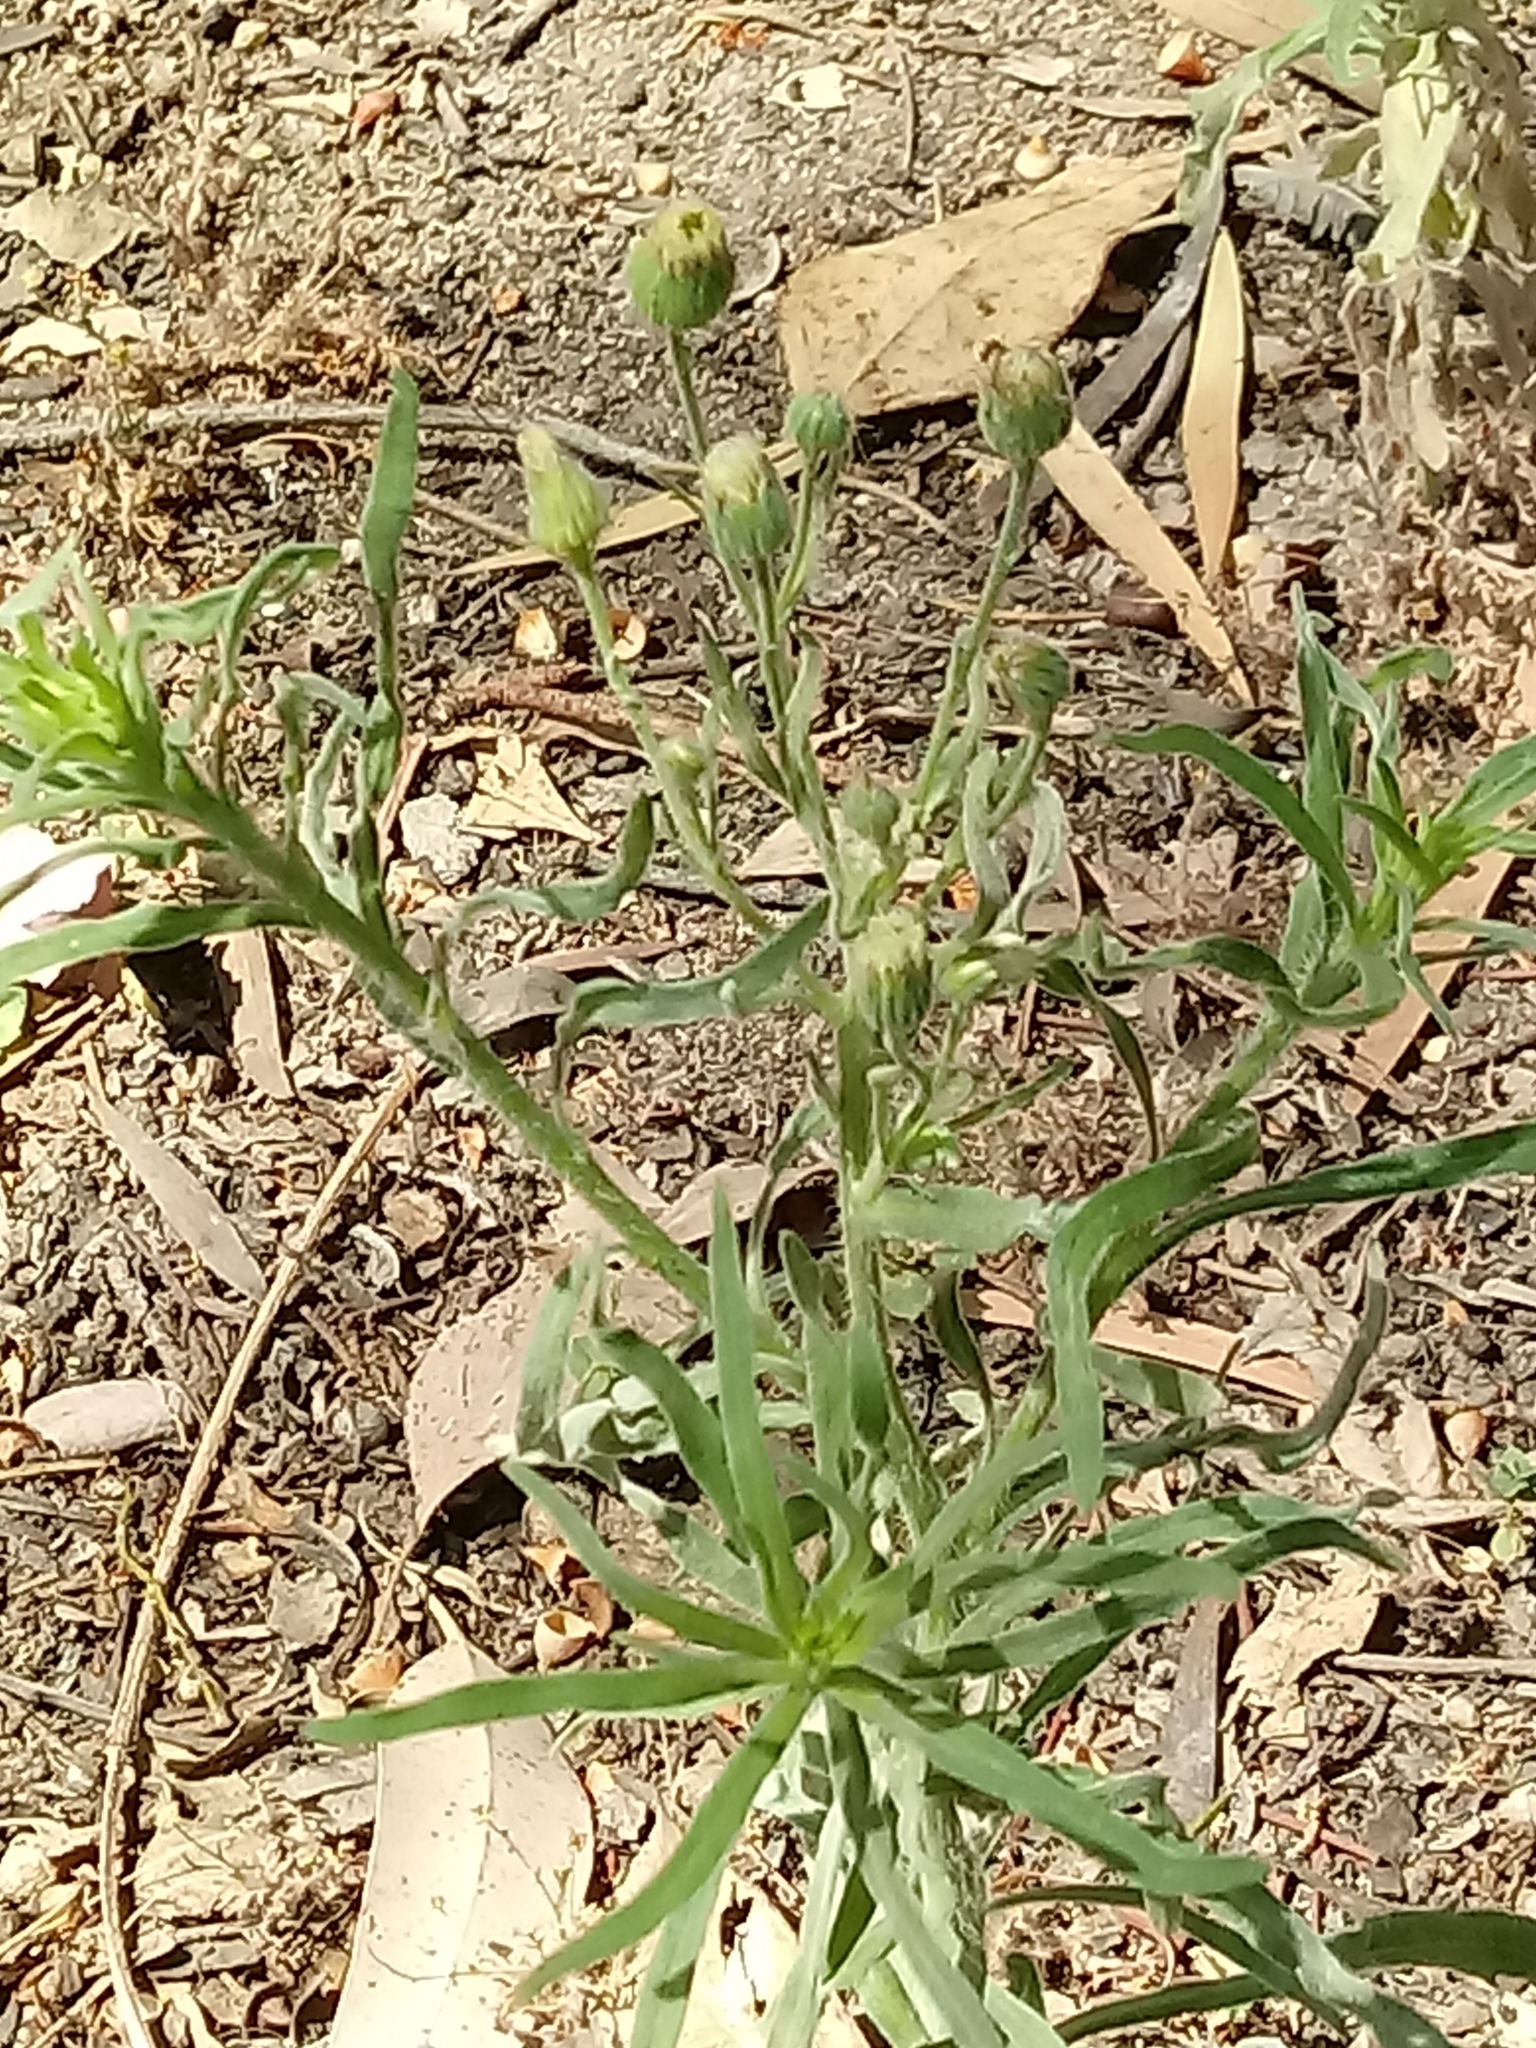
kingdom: Plantae
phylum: Tracheophyta
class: Magnoliopsida
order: Asterales
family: Asteraceae
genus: Erigeron
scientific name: Erigeron bonariensis
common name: Argentine fleabane
